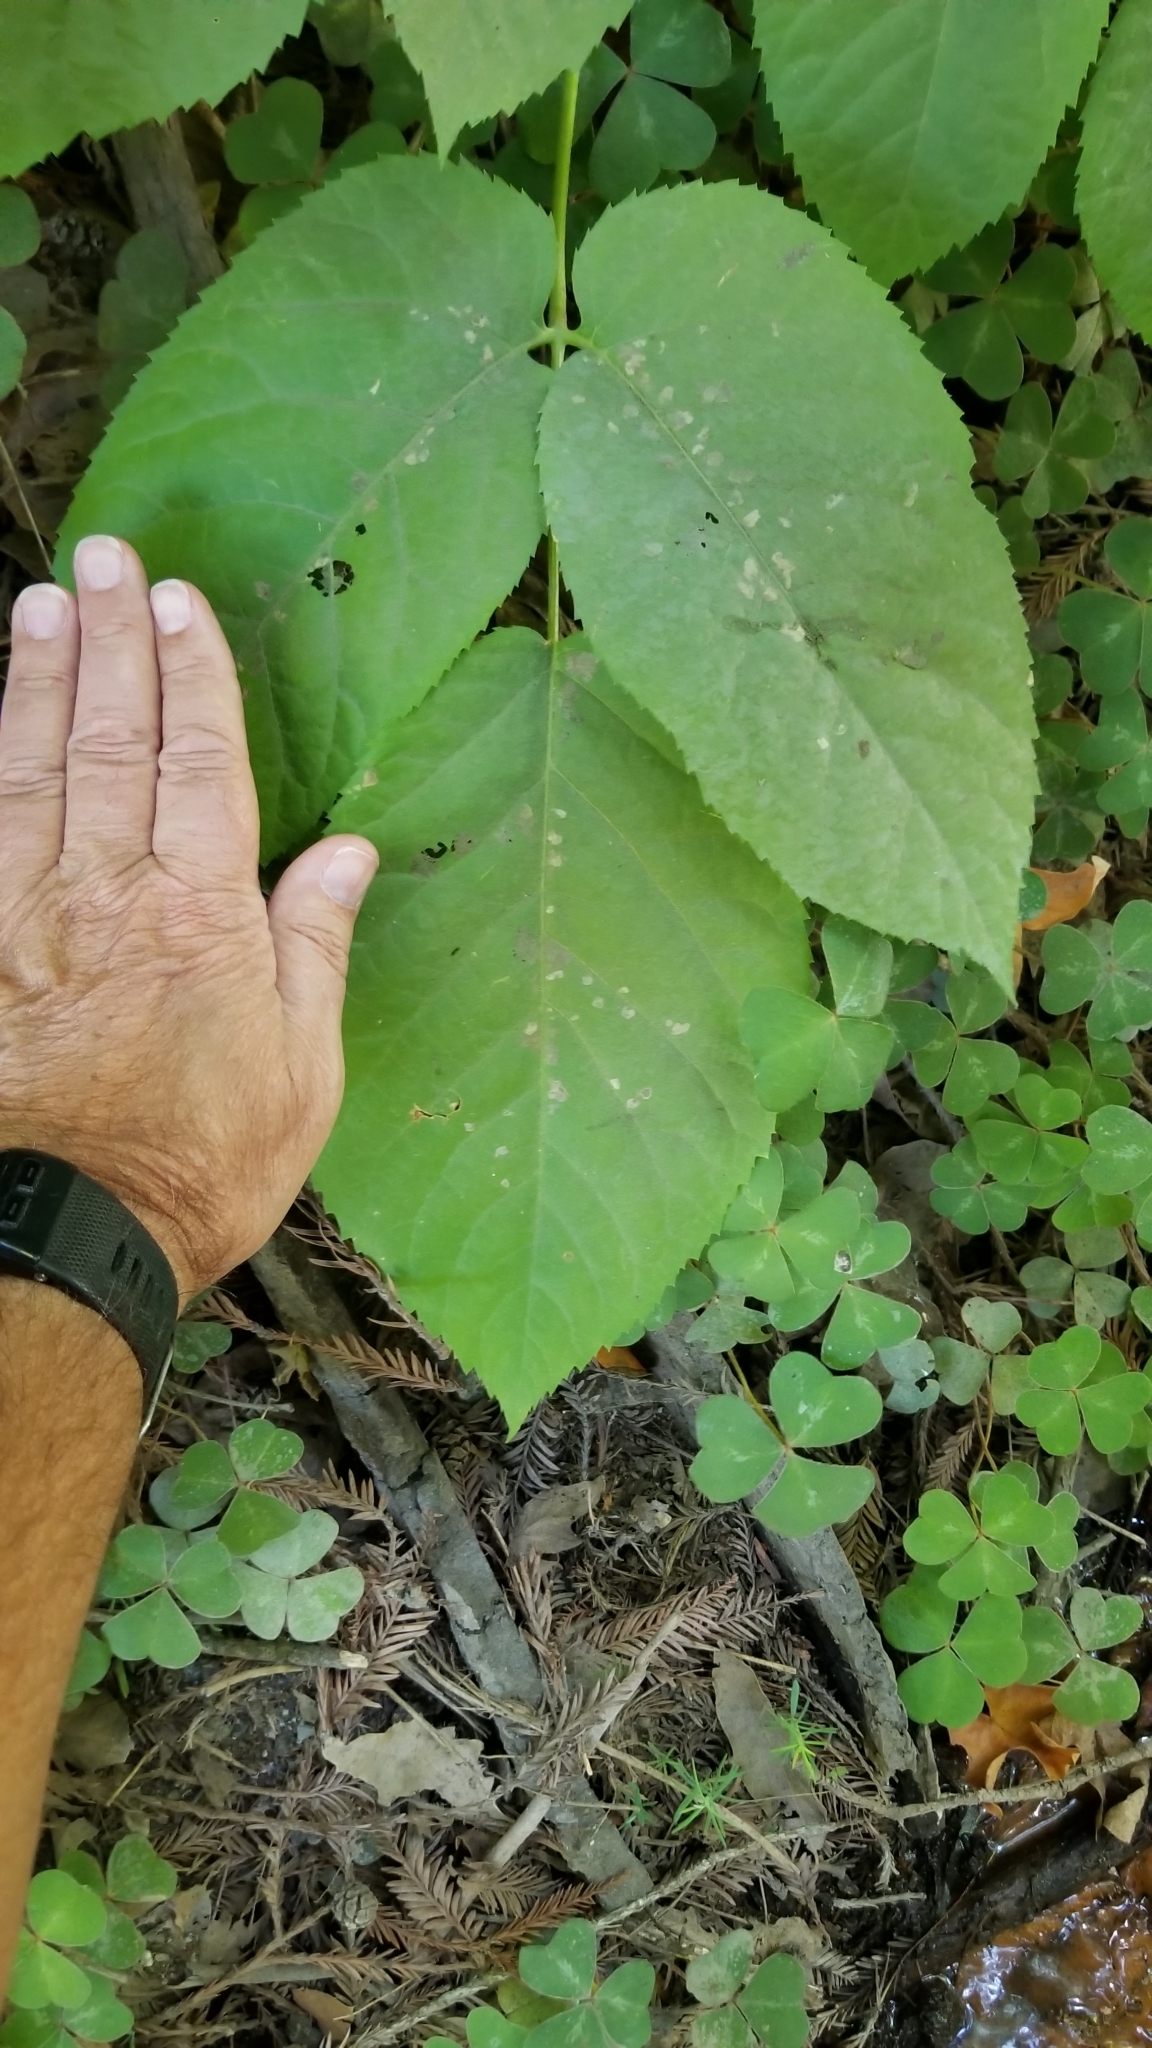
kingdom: Plantae
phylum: Tracheophyta
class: Magnoliopsida
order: Apiales
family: Araliaceae
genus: Aralia
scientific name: Aralia californica
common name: California-ginseng
